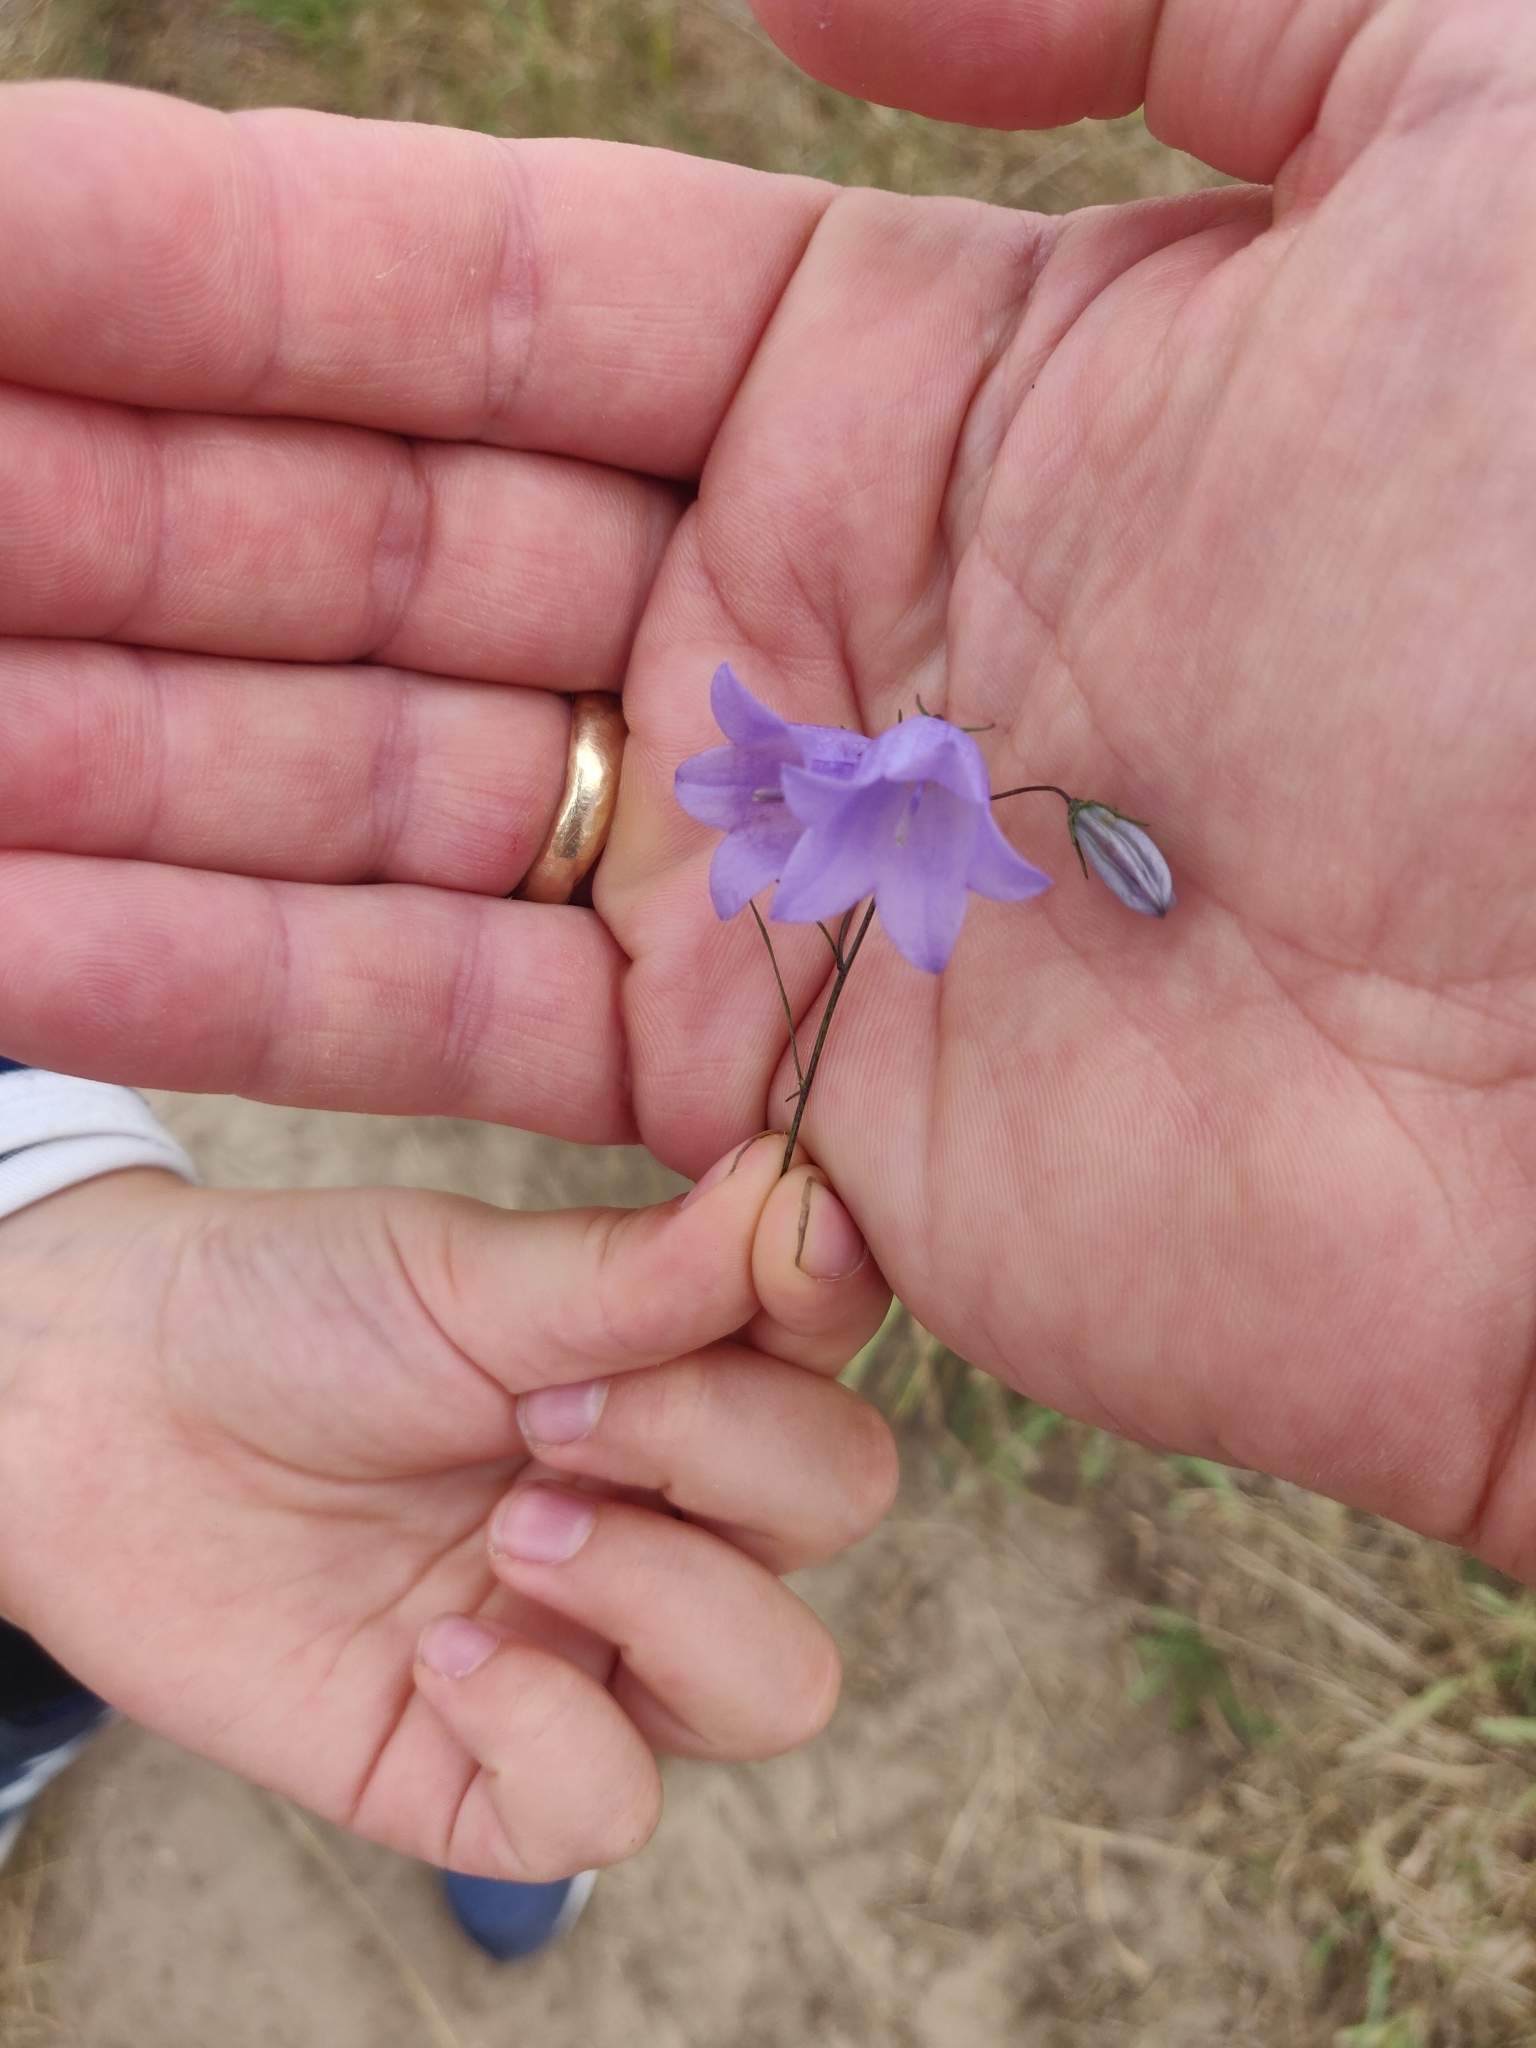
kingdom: Plantae
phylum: Tracheophyta
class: Magnoliopsida
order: Asterales
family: Campanulaceae
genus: Campanula
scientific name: Campanula rotundifolia
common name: Harebell
